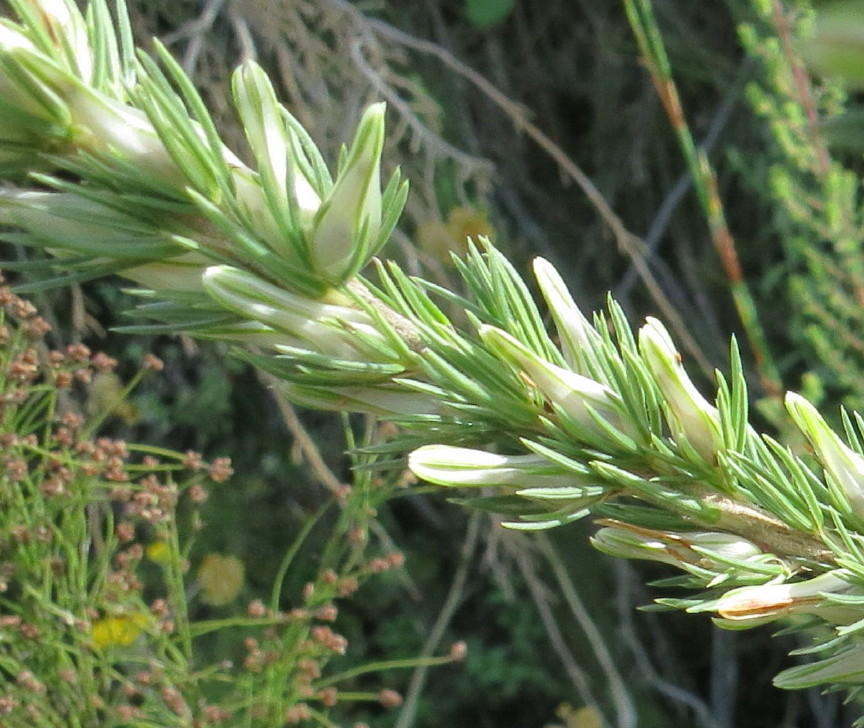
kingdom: Plantae
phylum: Tracheophyta
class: Magnoliopsida
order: Ericales
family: Ericaceae
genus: Erica
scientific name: Erica nabea
